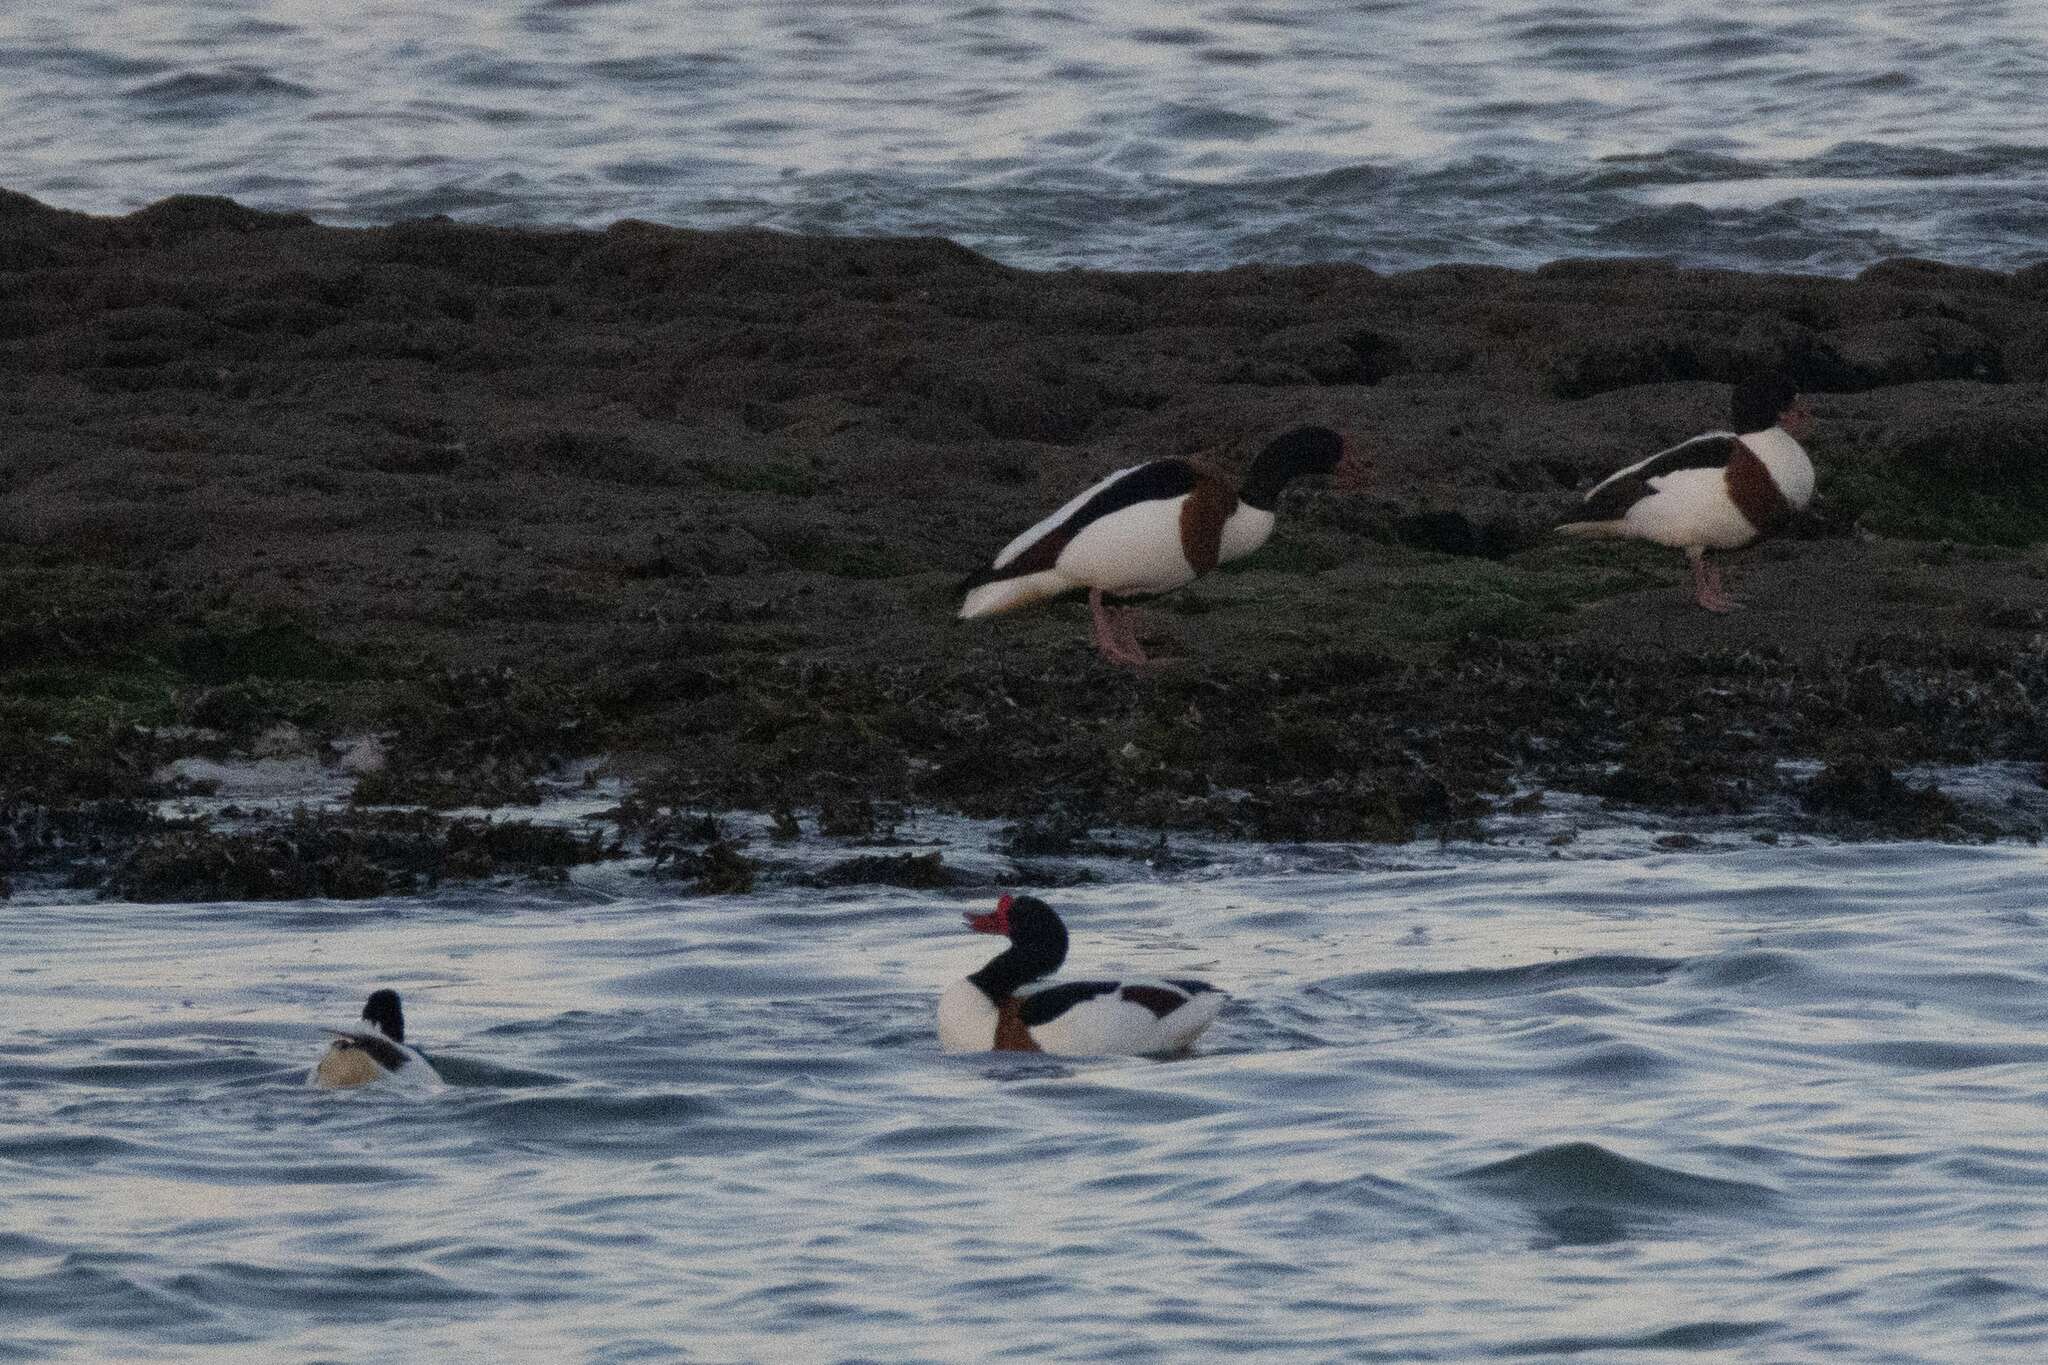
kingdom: Animalia
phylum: Chordata
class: Aves
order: Anseriformes
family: Anatidae
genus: Tadorna
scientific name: Tadorna tadorna
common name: Common shelduck
